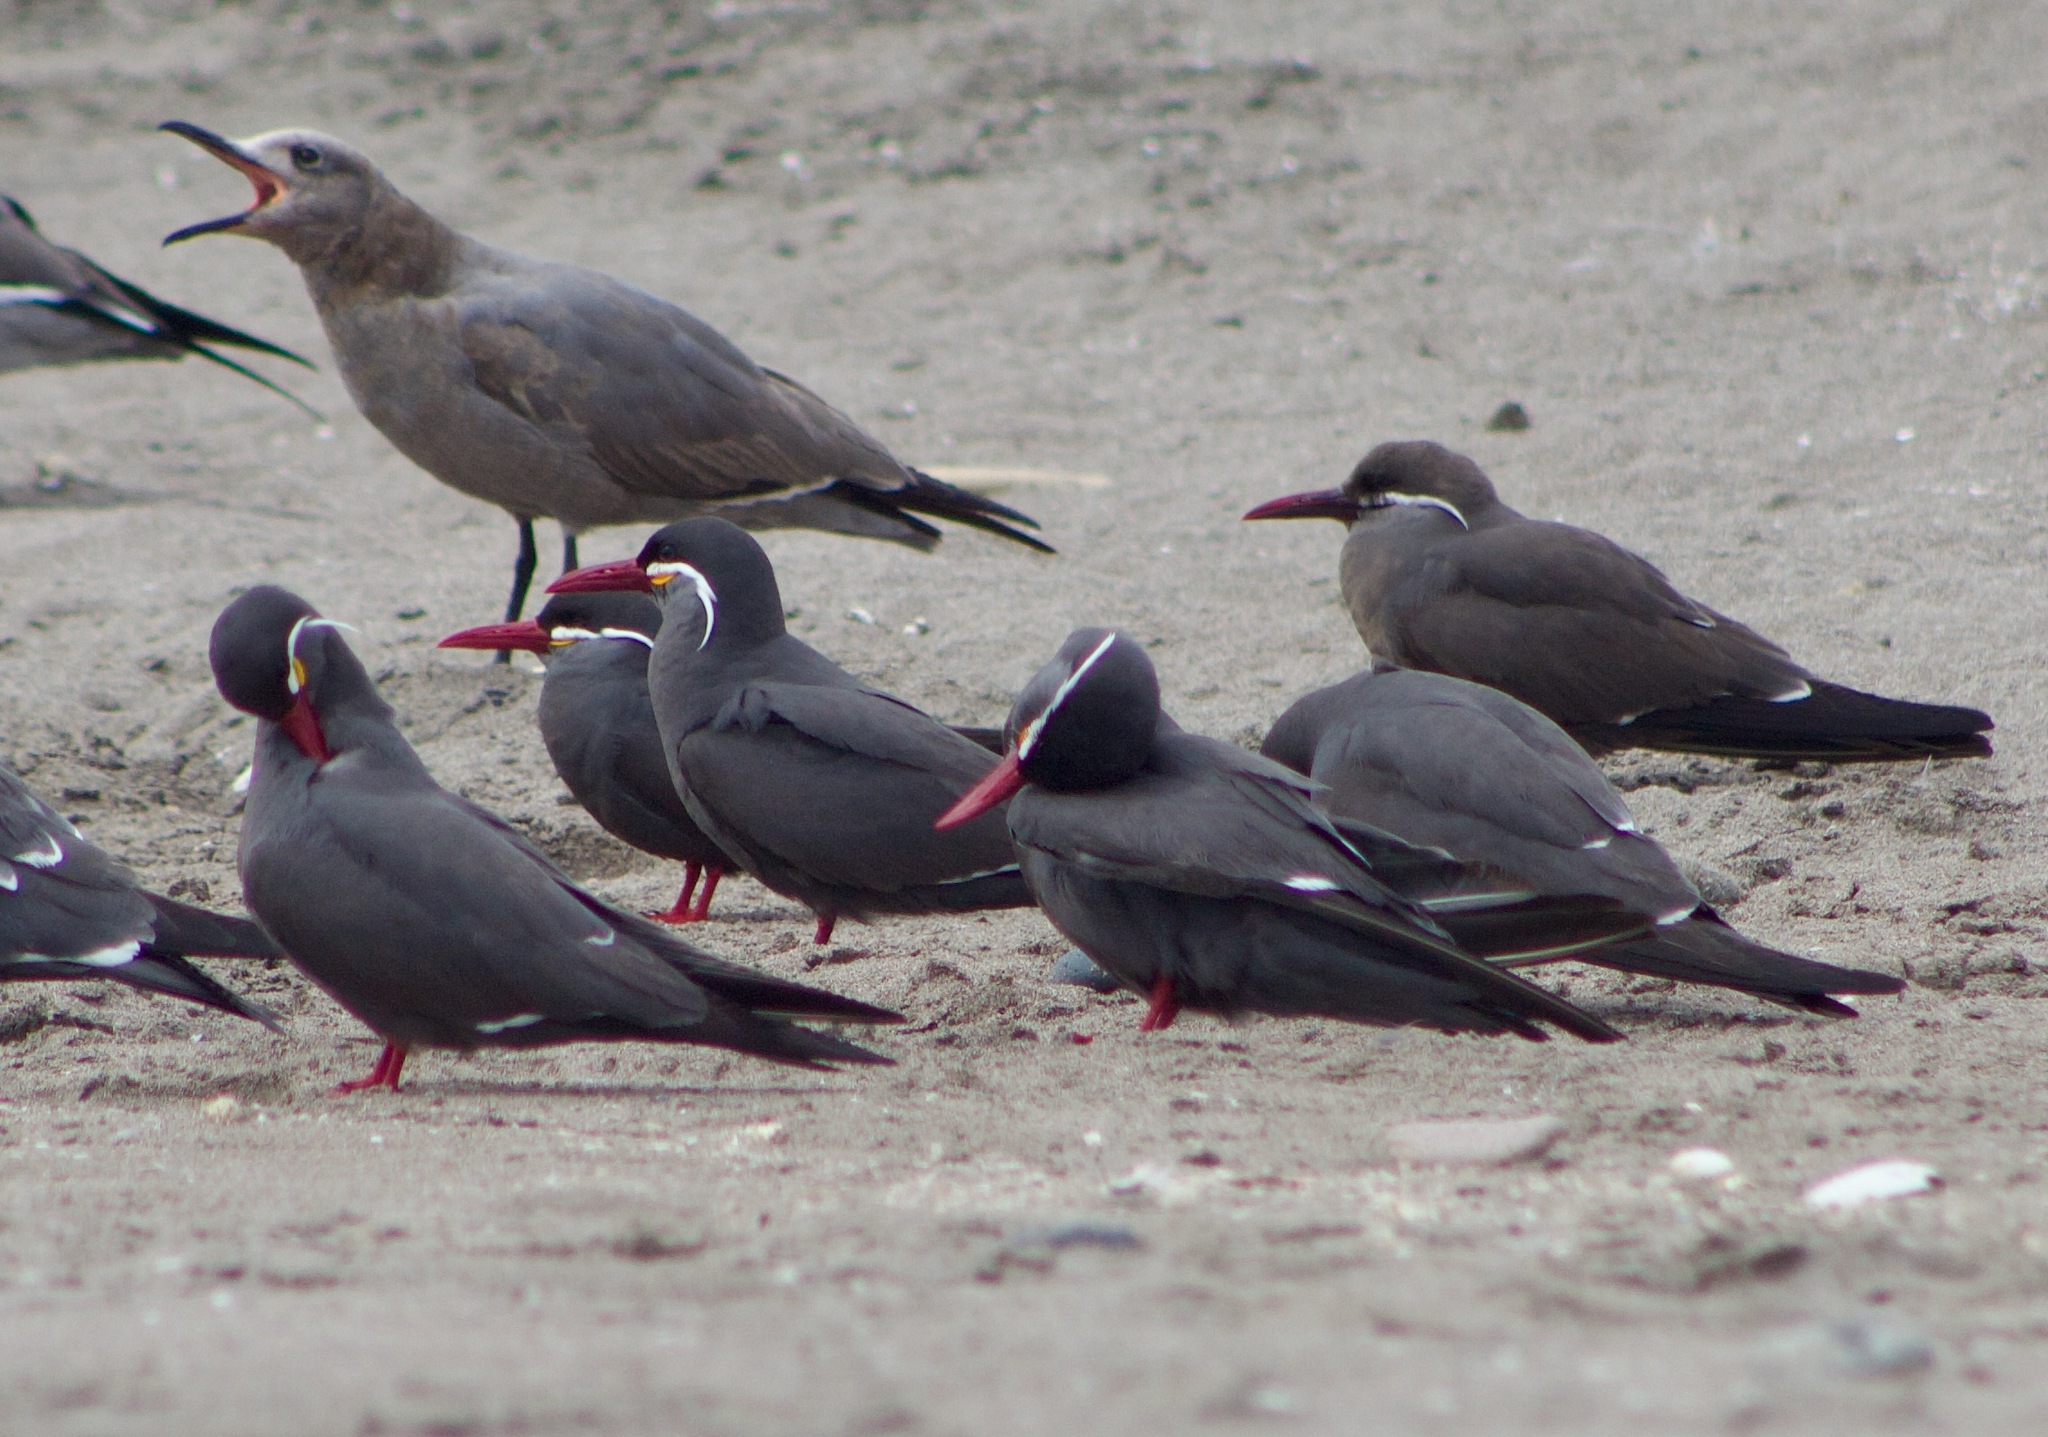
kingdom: Animalia
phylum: Chordata
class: Aves
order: Charadriiformes
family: Laridae
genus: Larosterna
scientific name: Larosterna inca
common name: Inca tern
